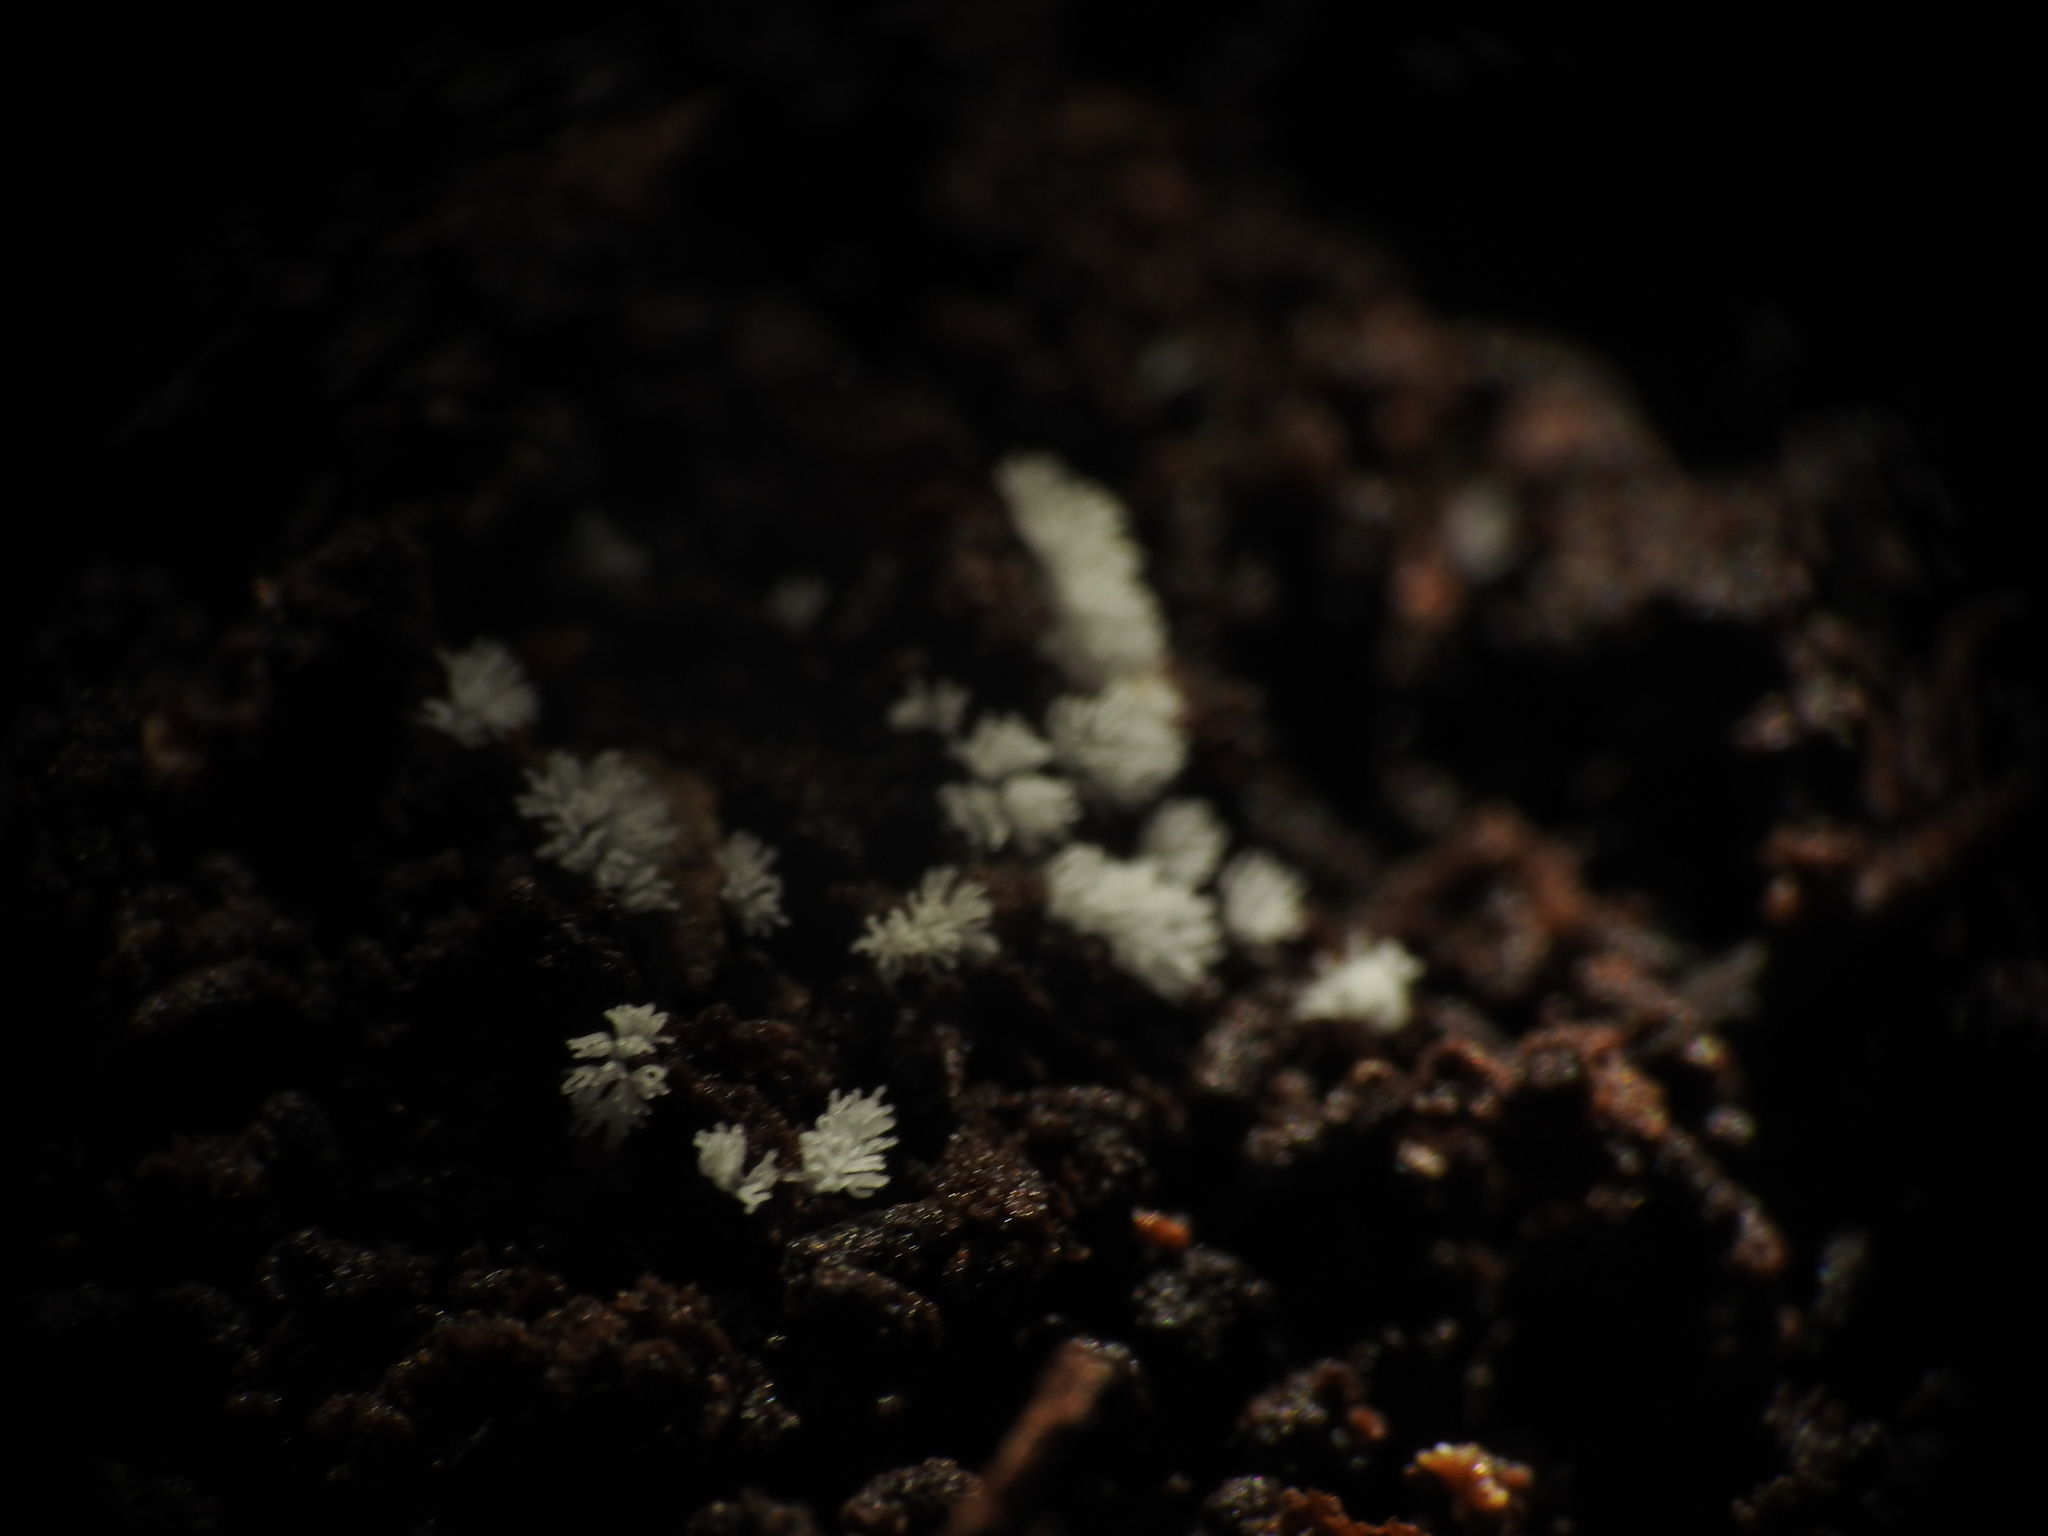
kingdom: Protozoa
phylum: Mycetozoa
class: Protosteliomycetes
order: Ceratiomyxales
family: Ceratiomyxaceae
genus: Ceratiomyxa
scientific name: Ceratiomyxa fruticulosa
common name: Honeycomb coral slime mold
